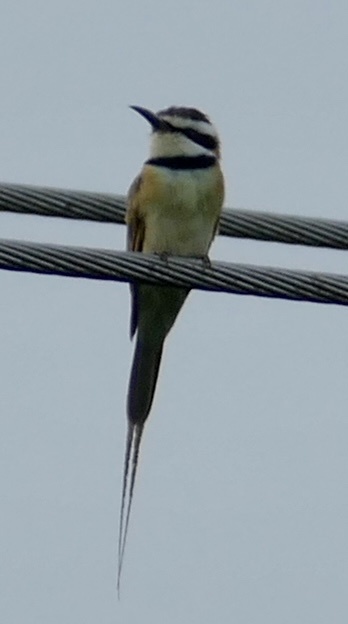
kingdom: Animalia
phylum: Chordata
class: Aves
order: Coraciiformes
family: Meropidae
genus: Merops
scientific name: Merops albicollis
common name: White-throated bee-eater
